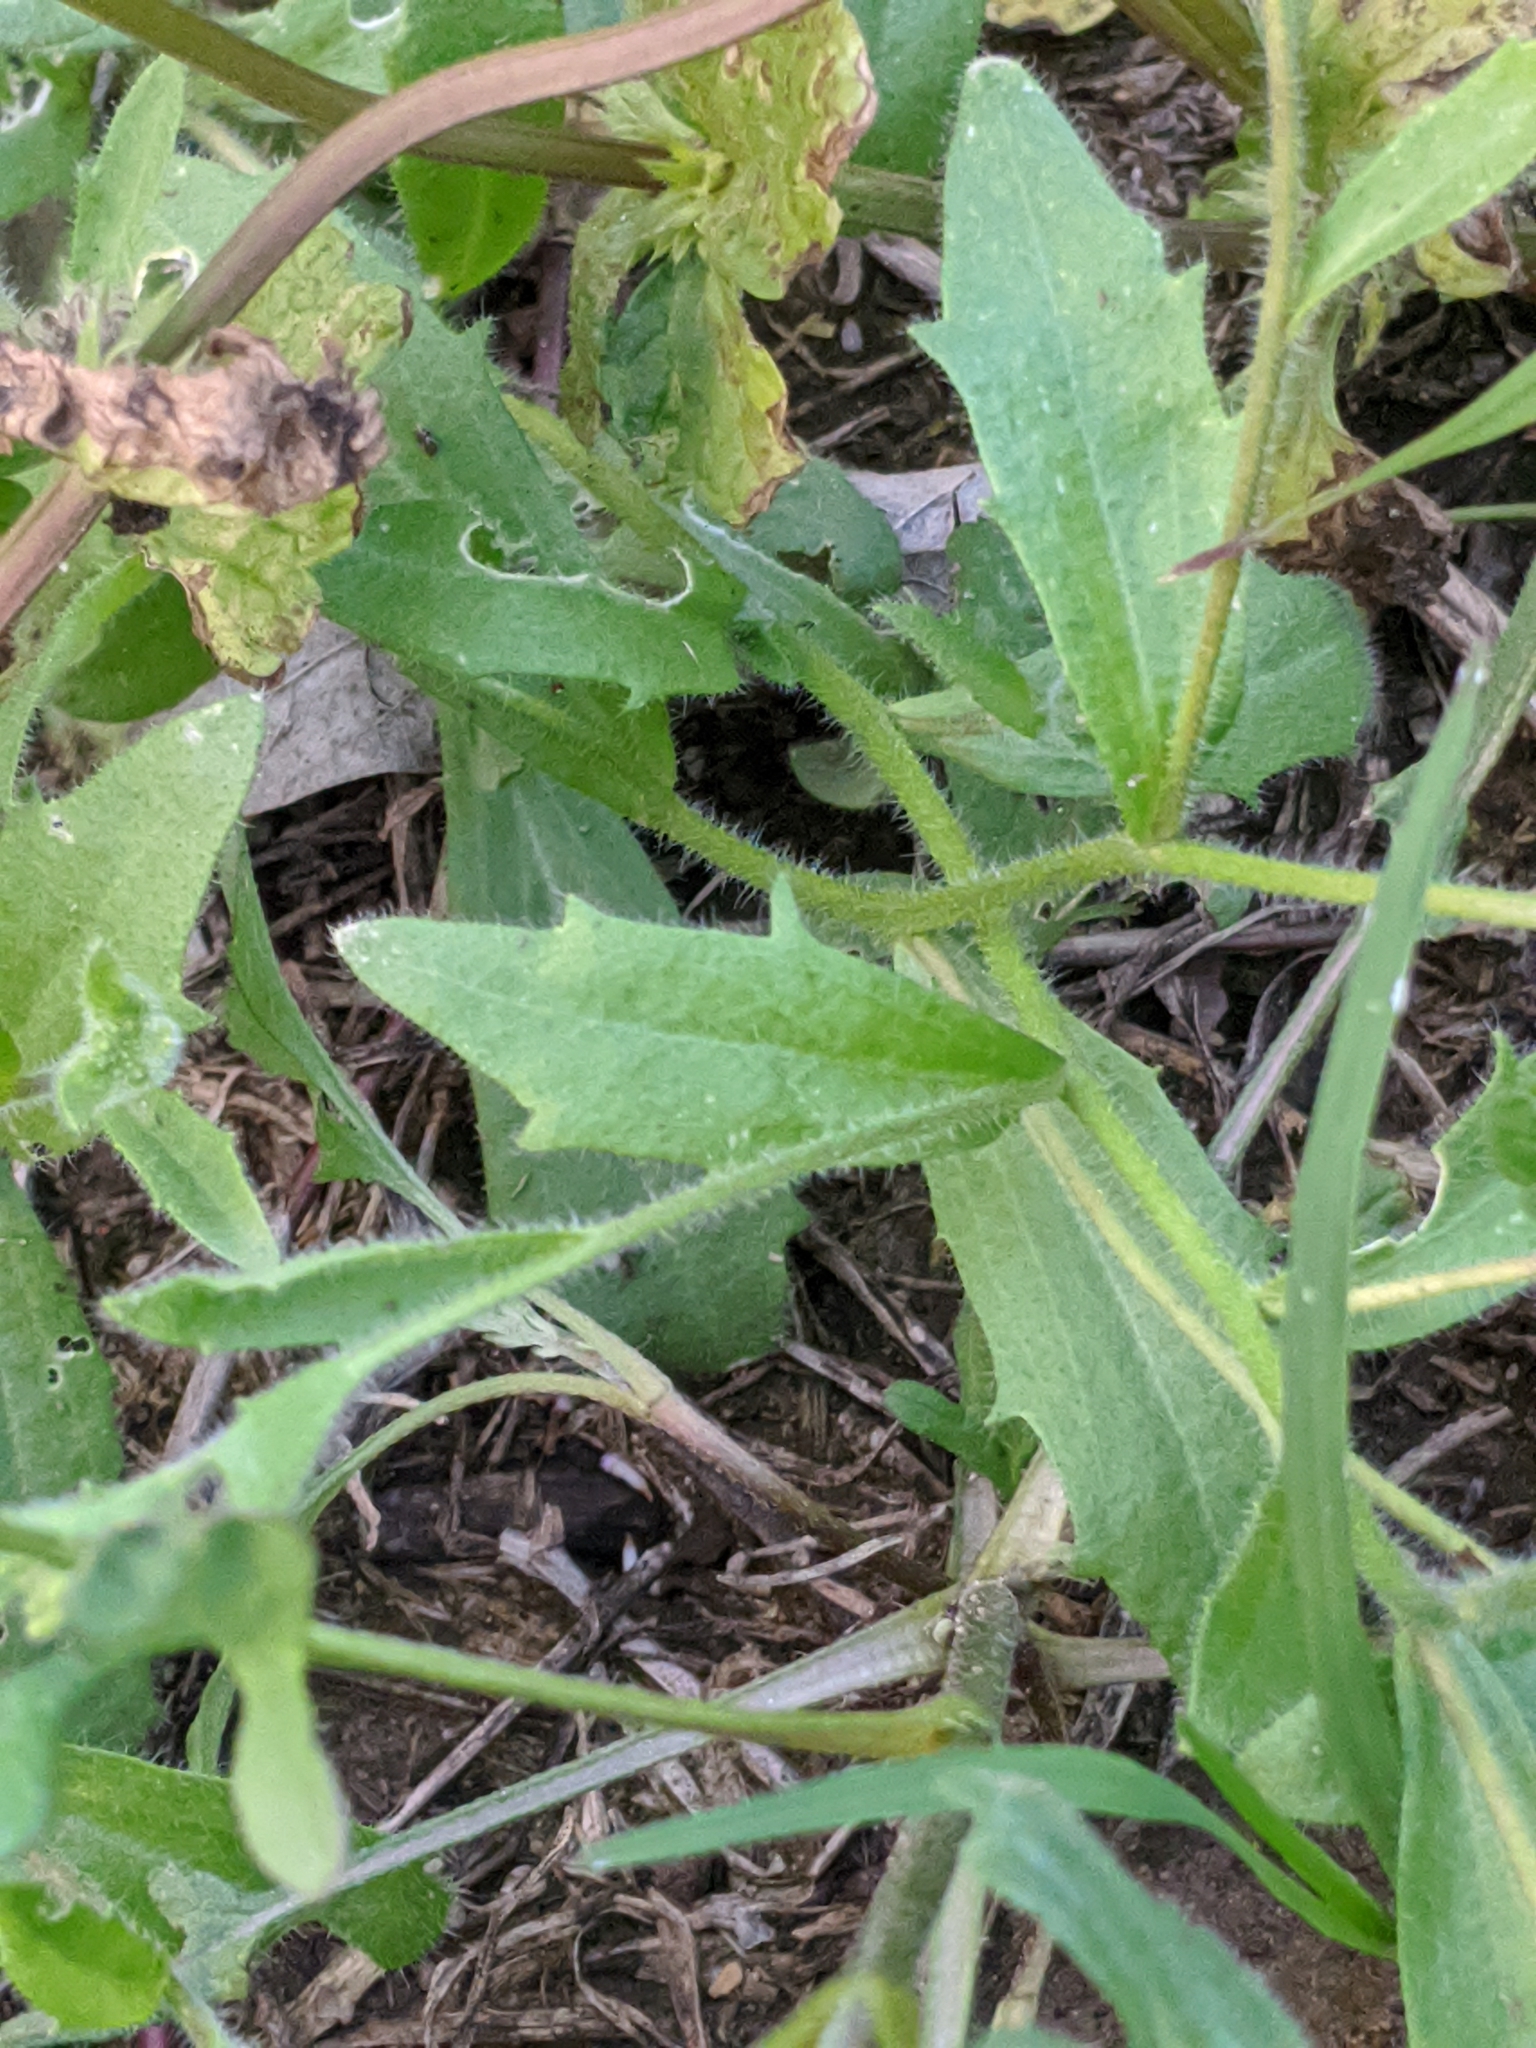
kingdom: Plantae
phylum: Tracheophyta
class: Magnoliopsida
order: Brassicales
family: Brassicaceae
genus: Tomostima
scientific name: Tomostima platycarpa
